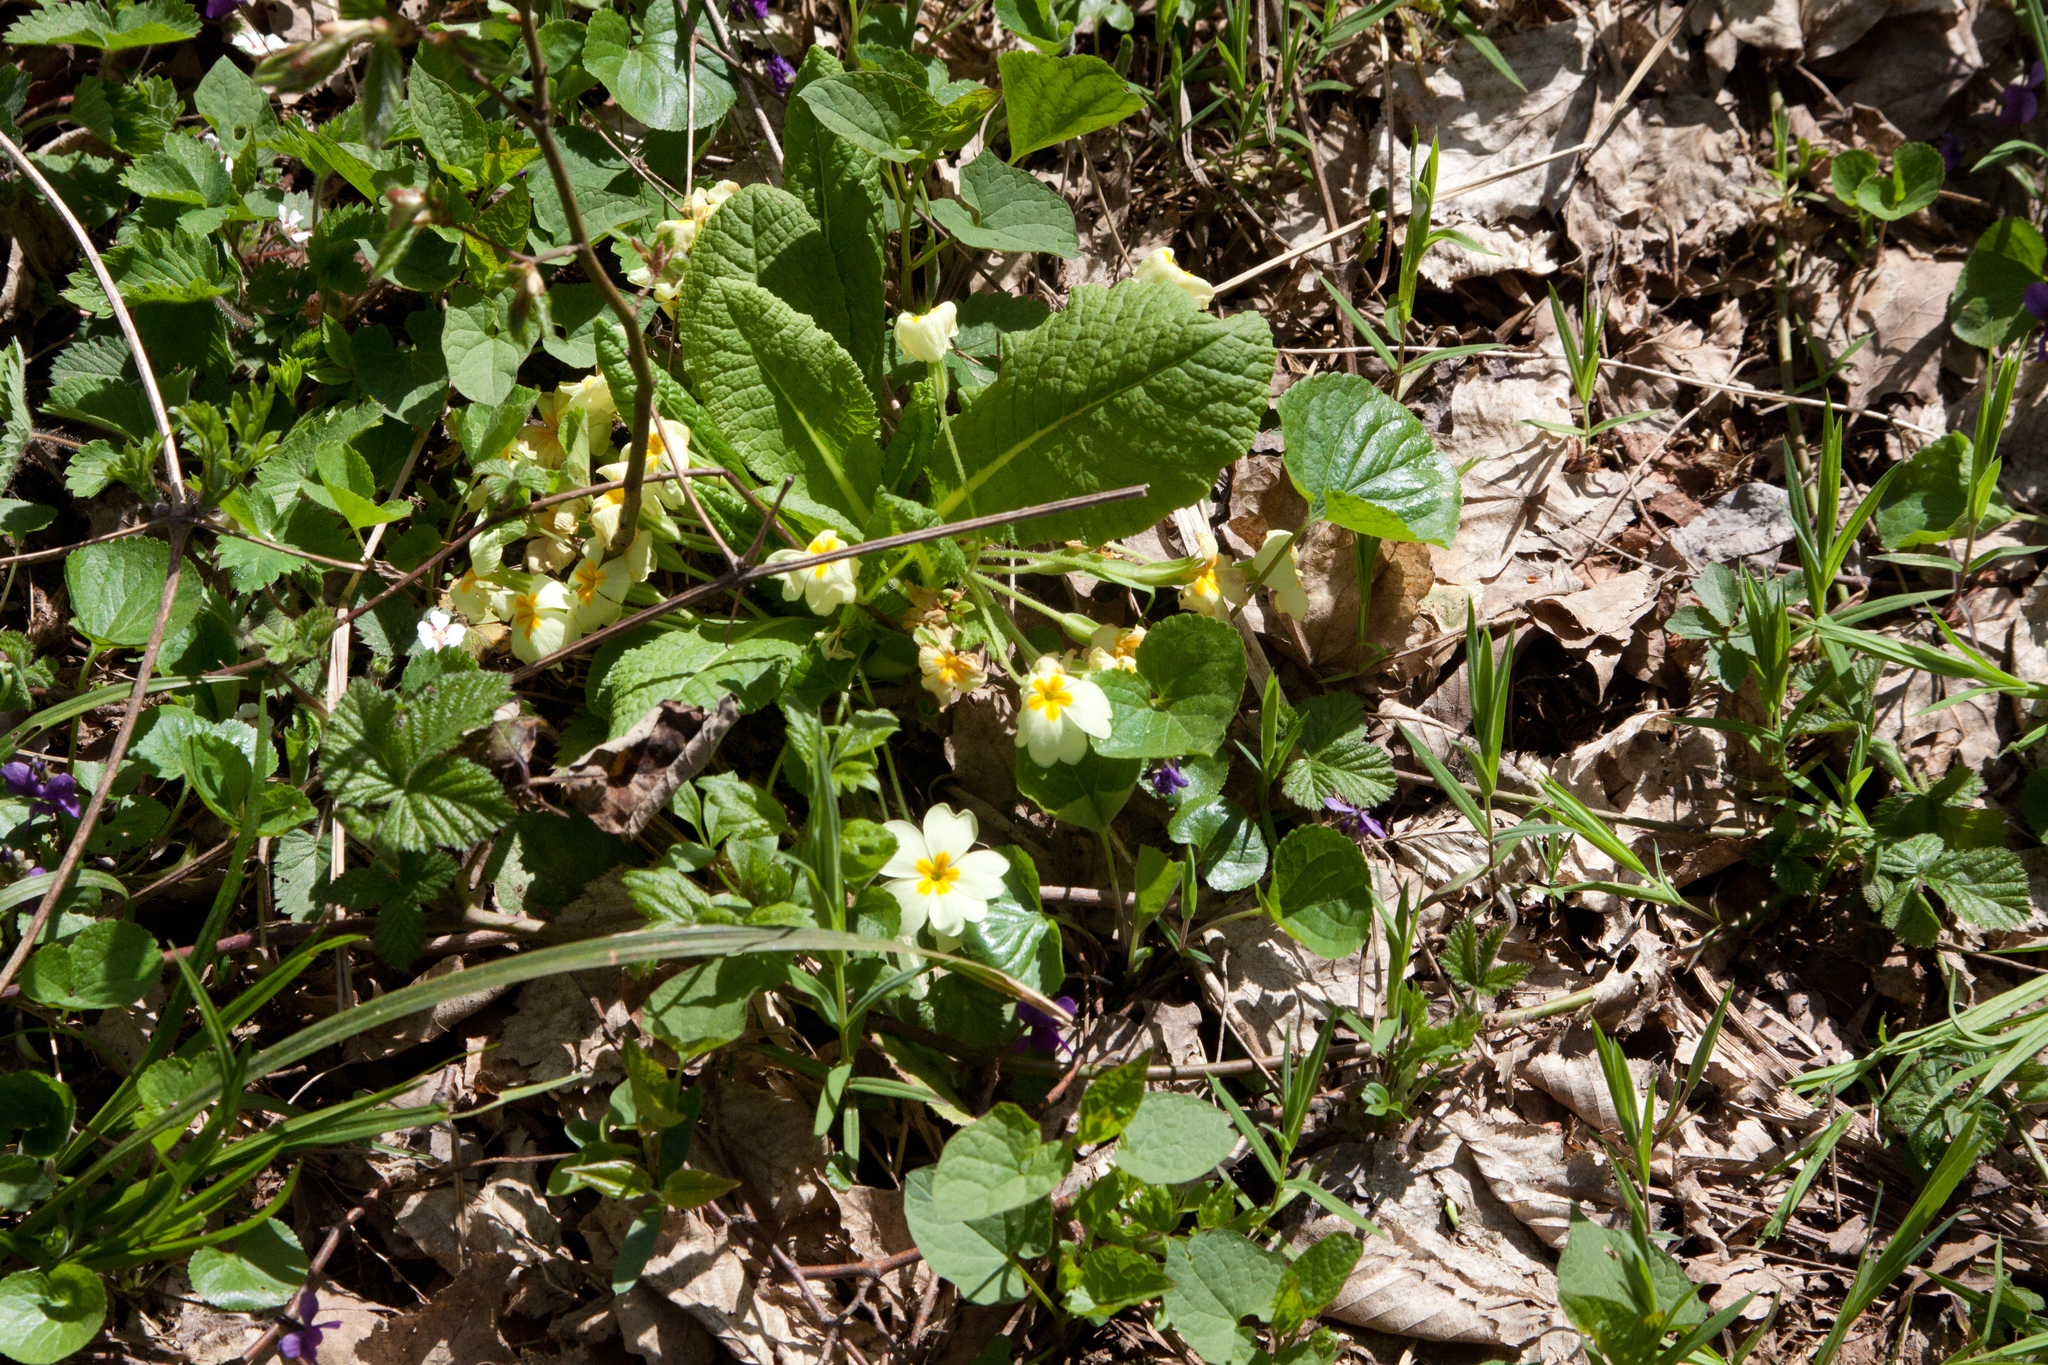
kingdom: Plantae
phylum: Tracheophyta
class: Magnoliopsida
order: Ericales
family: Primulaceae
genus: Primula
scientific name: Primula vulgaris
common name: Primrose
